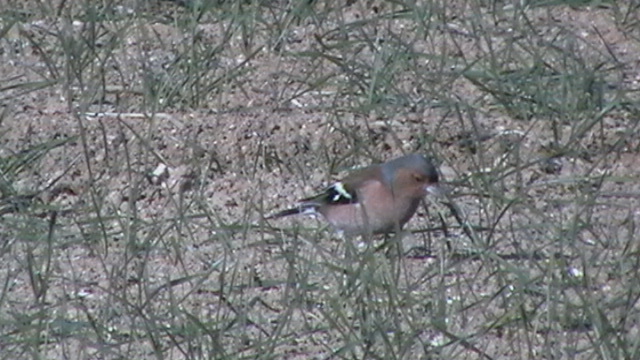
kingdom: Animalia
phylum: Chordata
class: Aves
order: Passeriformes
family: Fringillidae
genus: Fringilla
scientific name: Fringilla coelebs
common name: Common chaffinch
